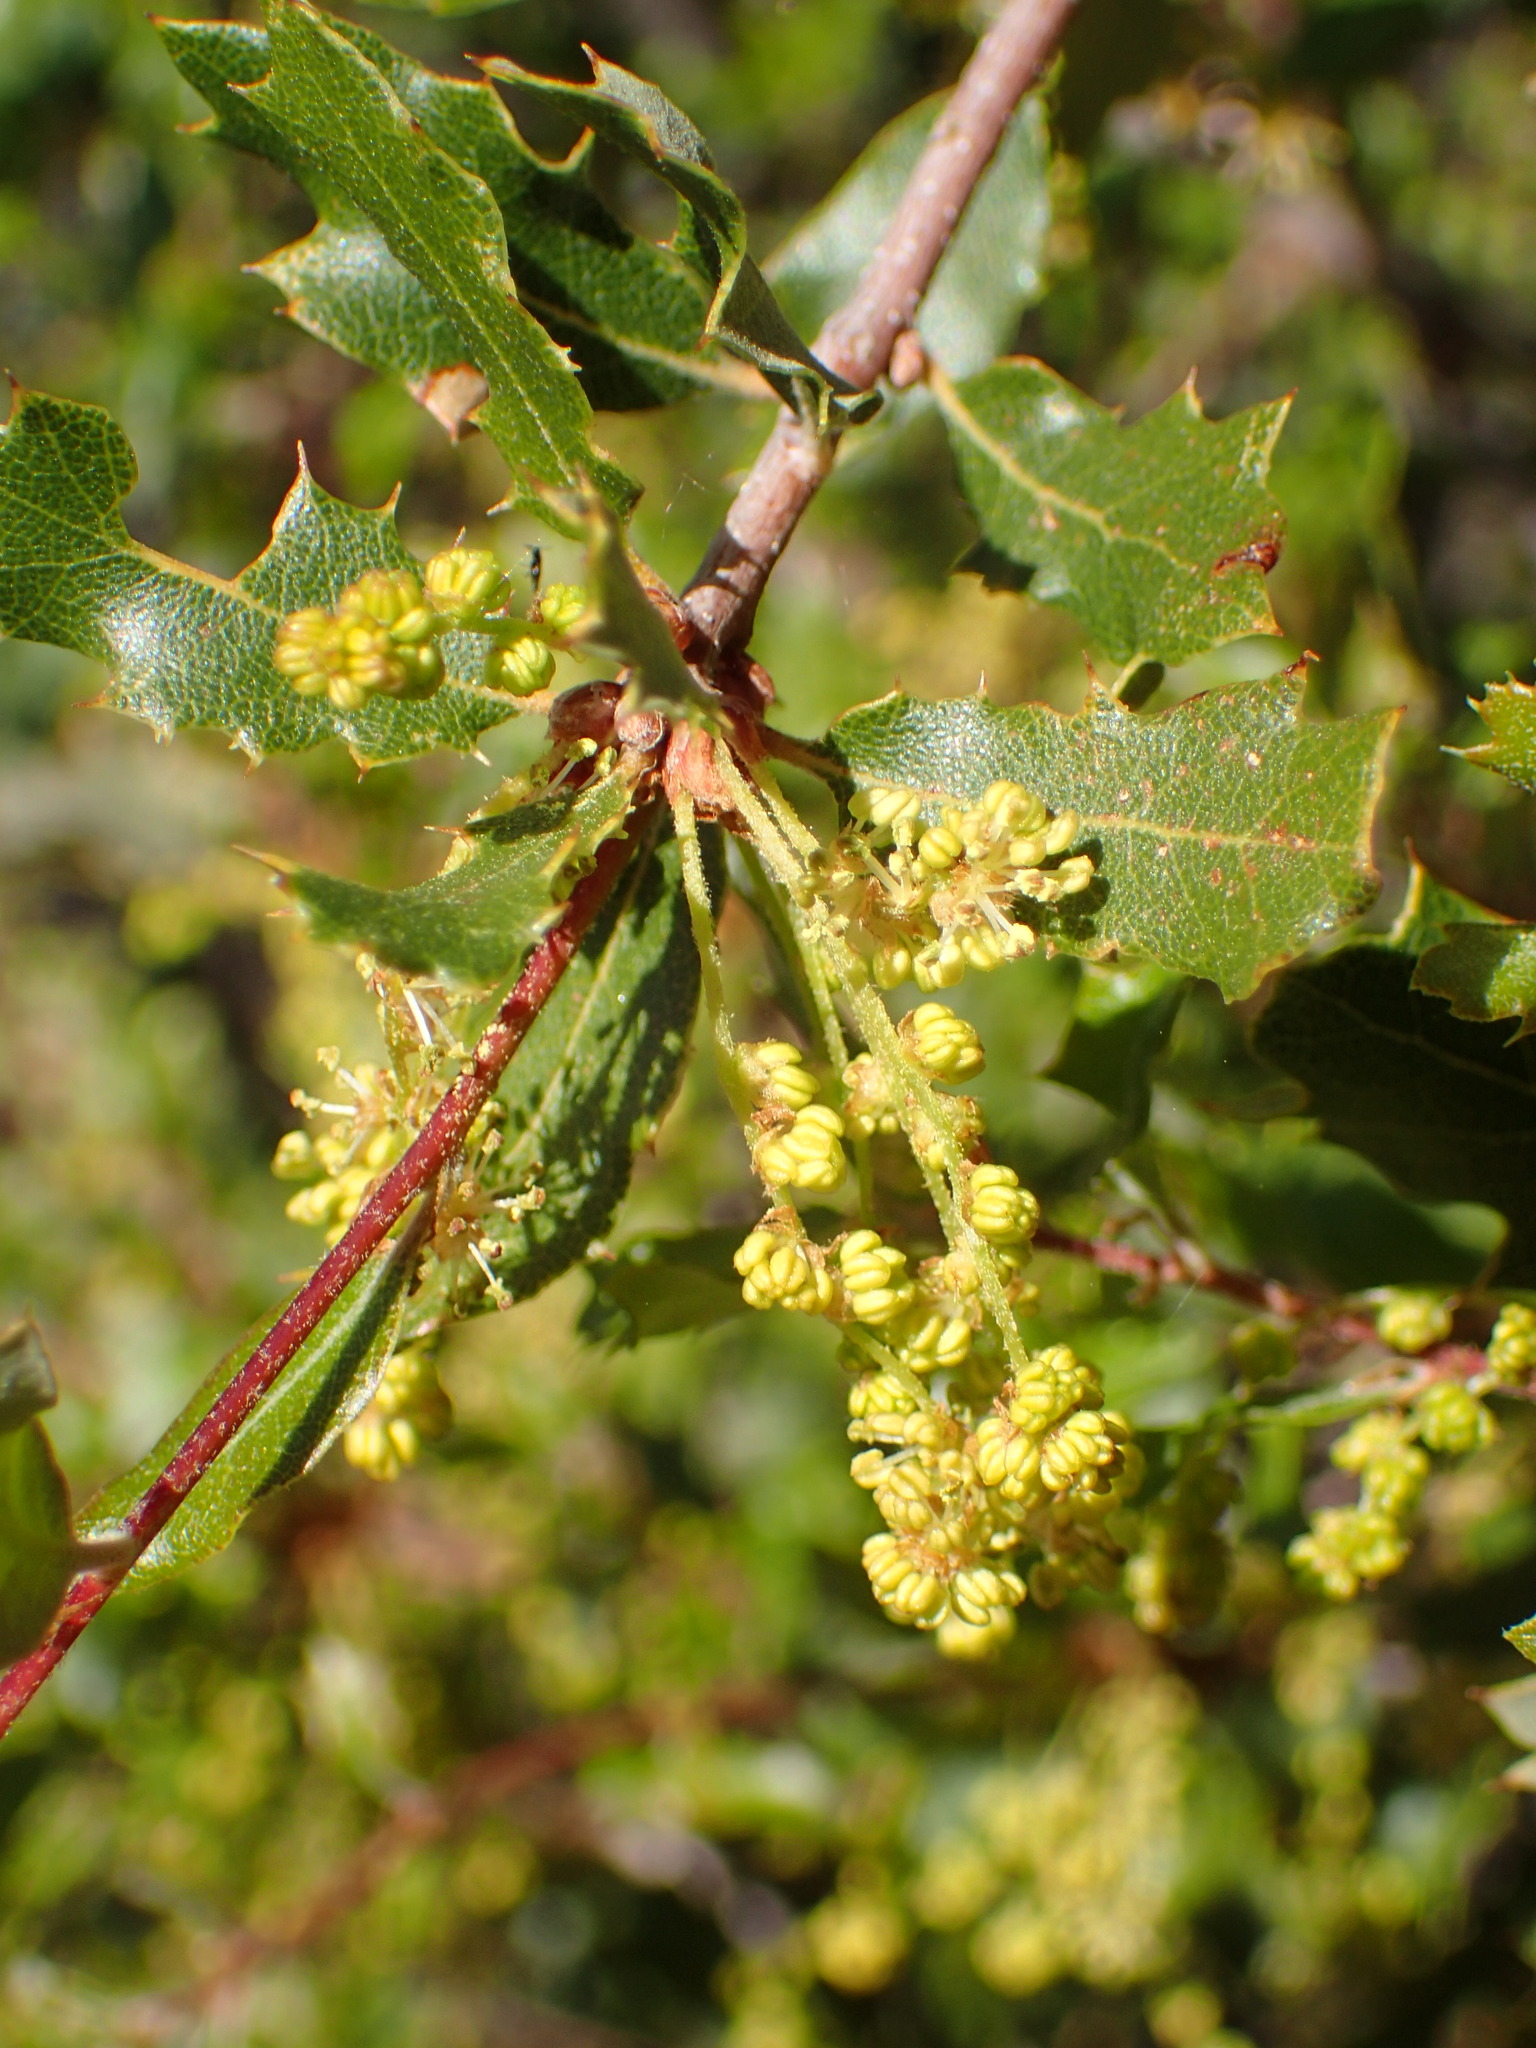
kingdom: Plantae
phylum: Tracheophyta
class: Magnoliopsida
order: Fagales
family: Fagaceae
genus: Quercus
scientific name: Quercus berberidifolia
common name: California scrub oak
